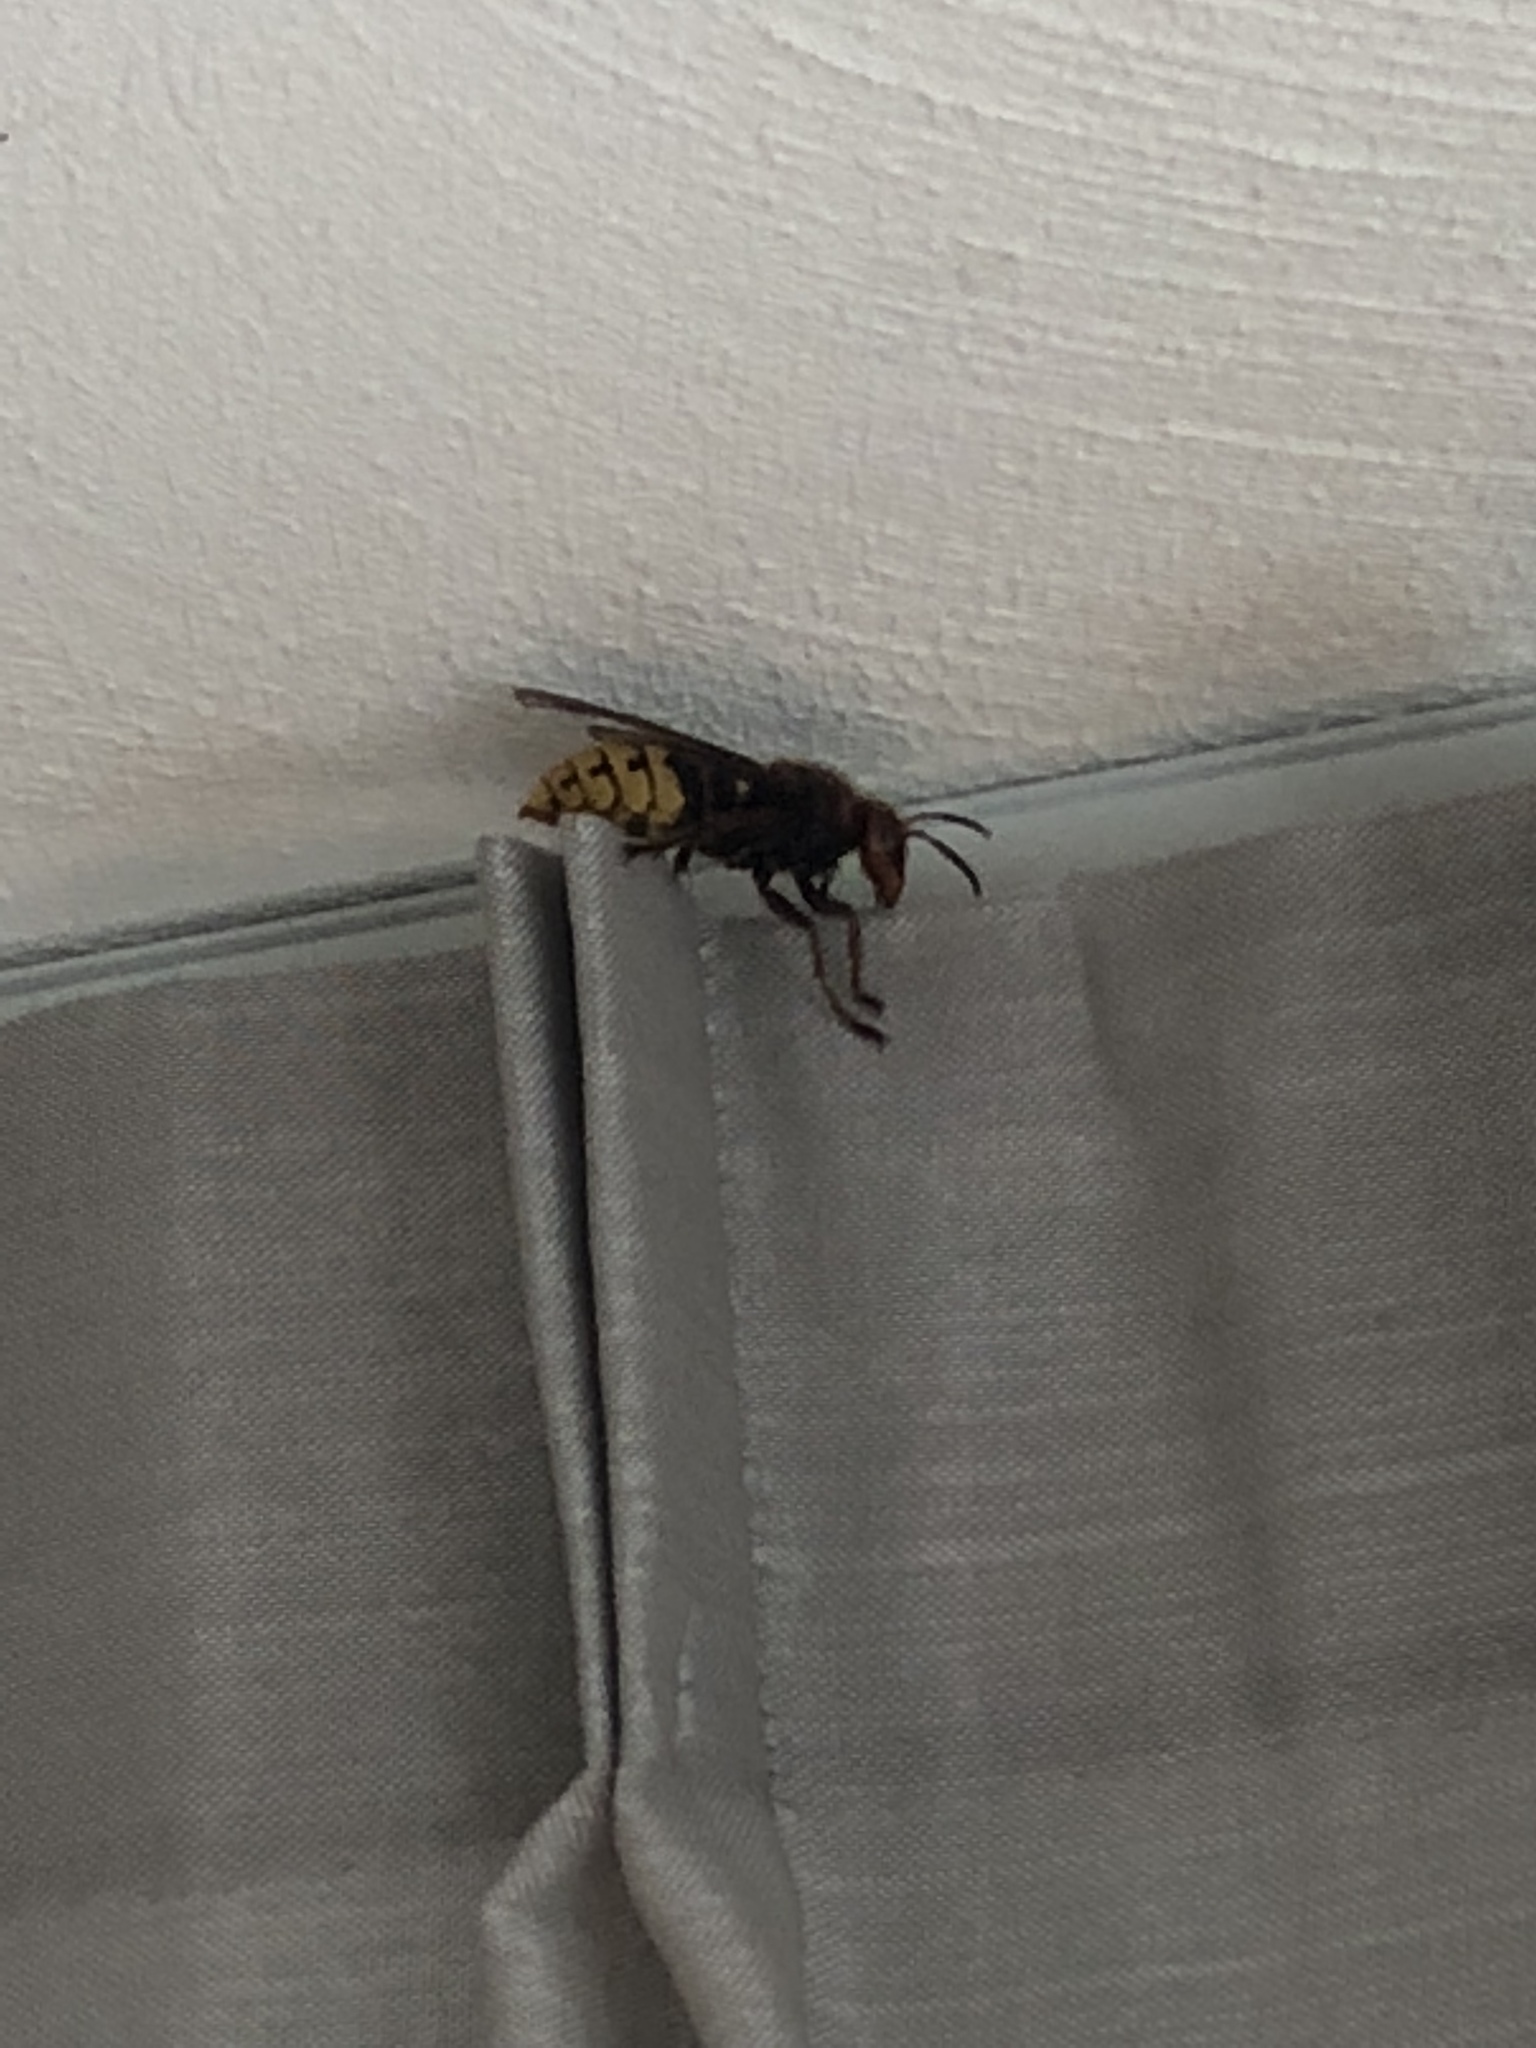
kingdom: Animalia
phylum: Arthropoda
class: Insecta
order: Hymenoptera
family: Vespidae
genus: Vespa
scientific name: Vespa crabro
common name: Hornet
